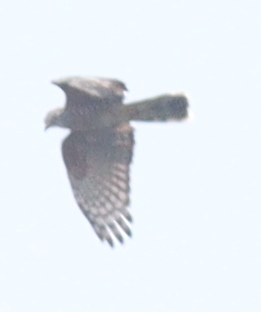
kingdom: Animalia
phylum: Chordata
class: Aves
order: Accipitriformes
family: Accipitridae
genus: Aviceda
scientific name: Aviceda cuculoides
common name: African cuckoo-hawk
